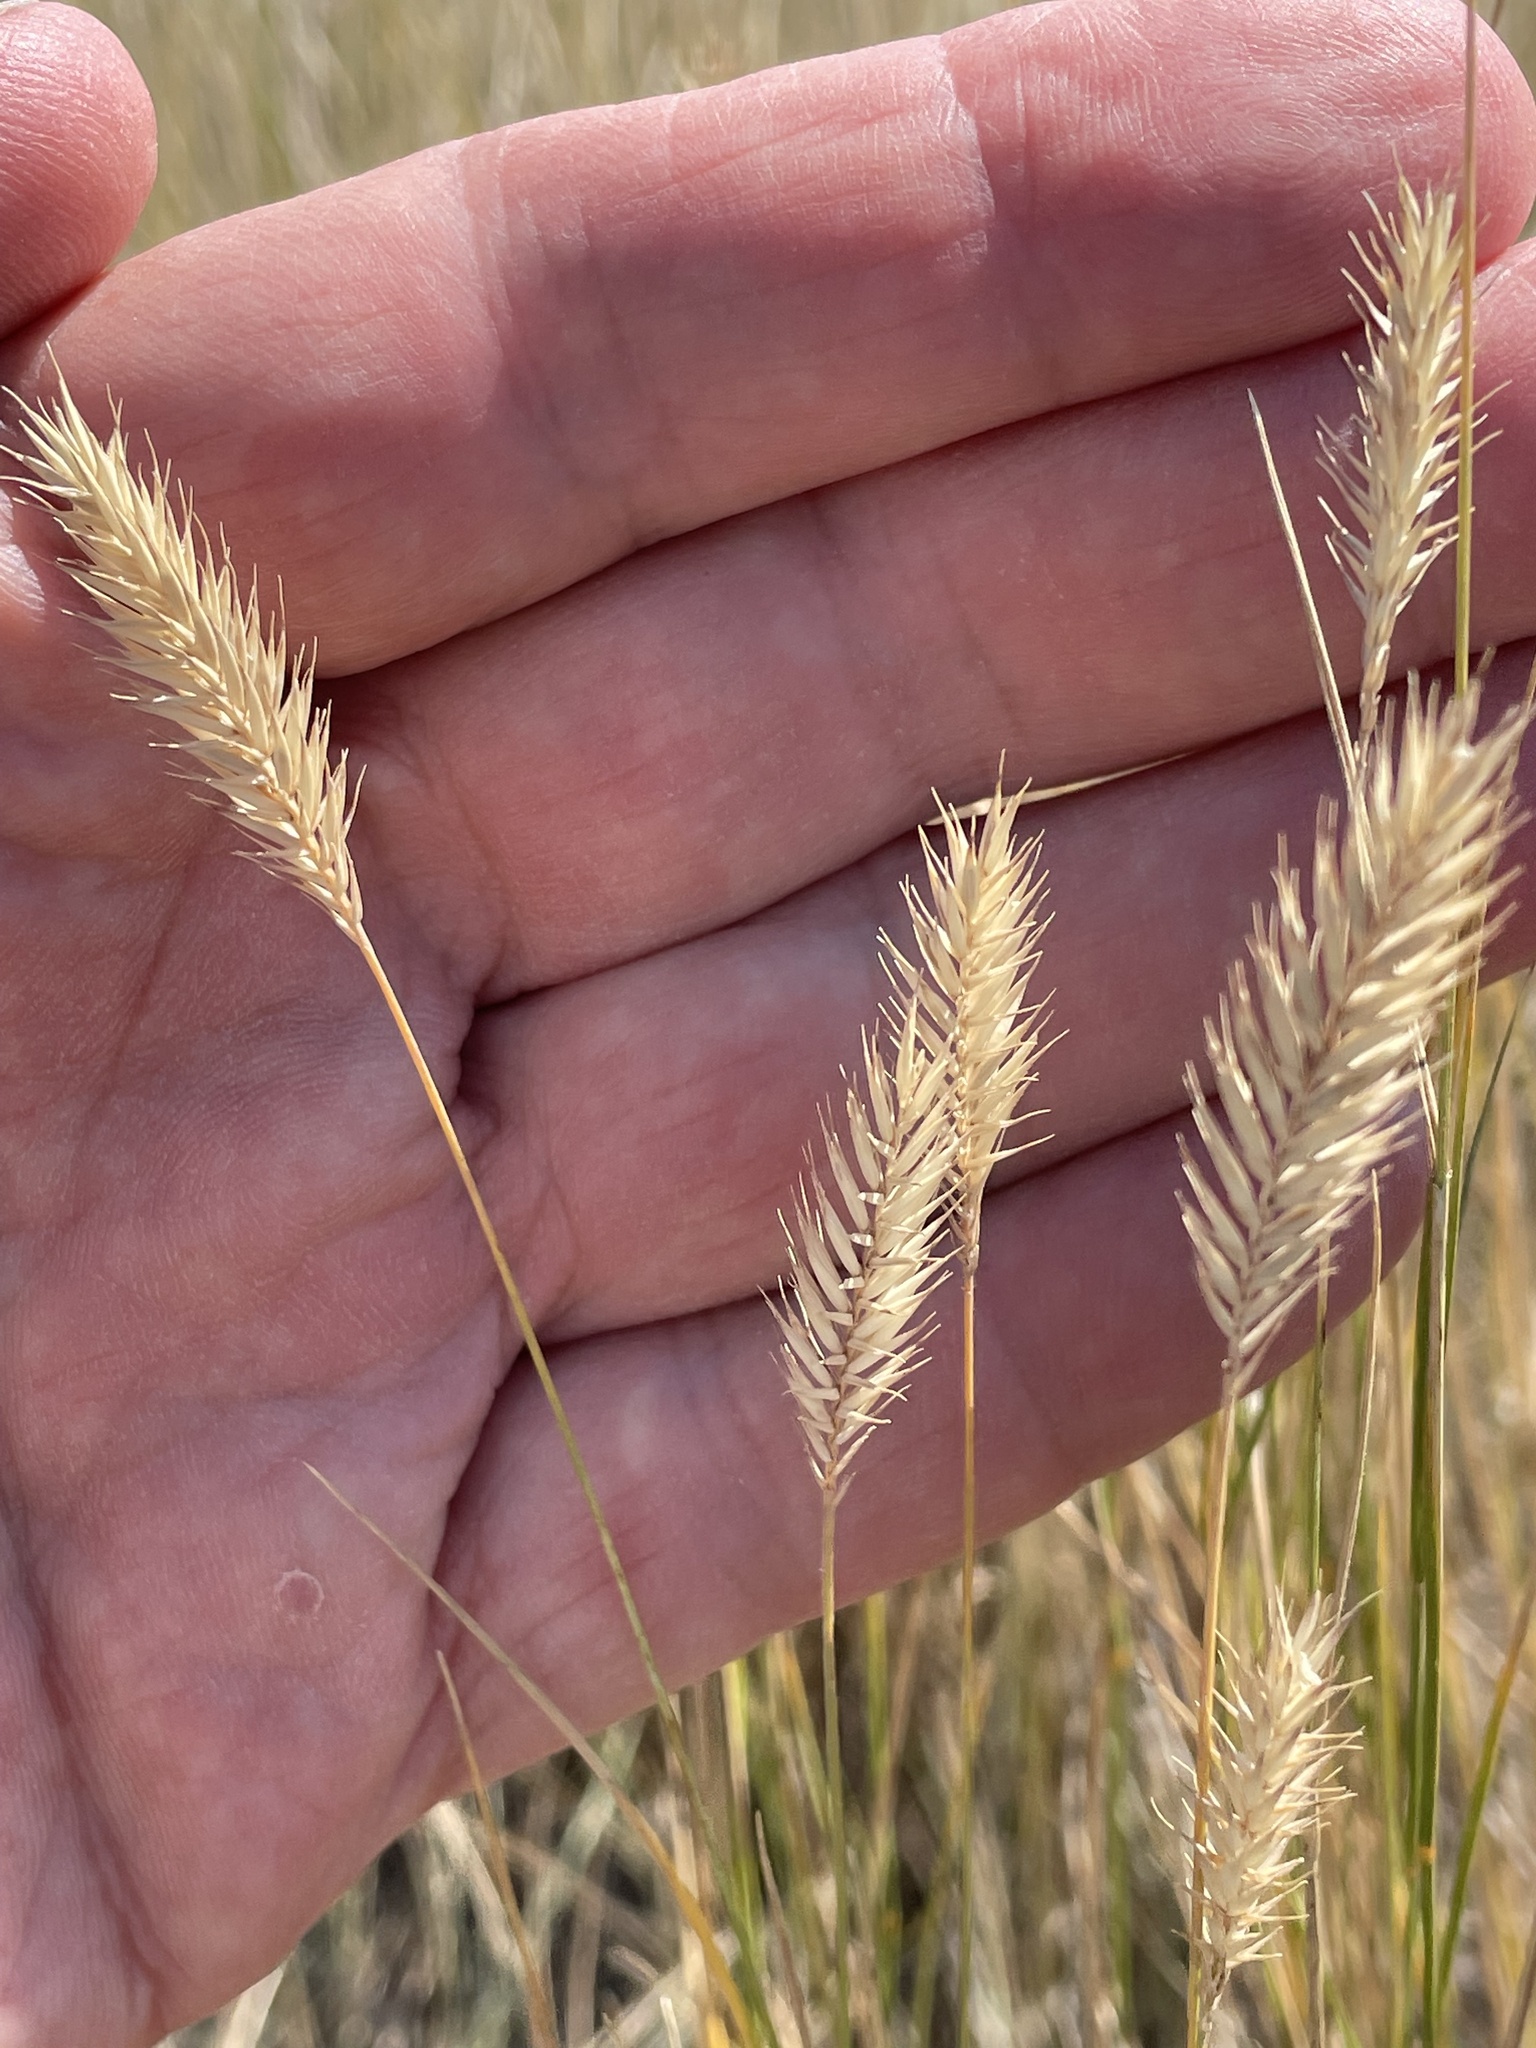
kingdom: Plantae
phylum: Tracheophyta
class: Liliopsida
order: Poales
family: Poaceae
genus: Agropyron
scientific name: Agropyron cristatum
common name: Crested wheatgrass
